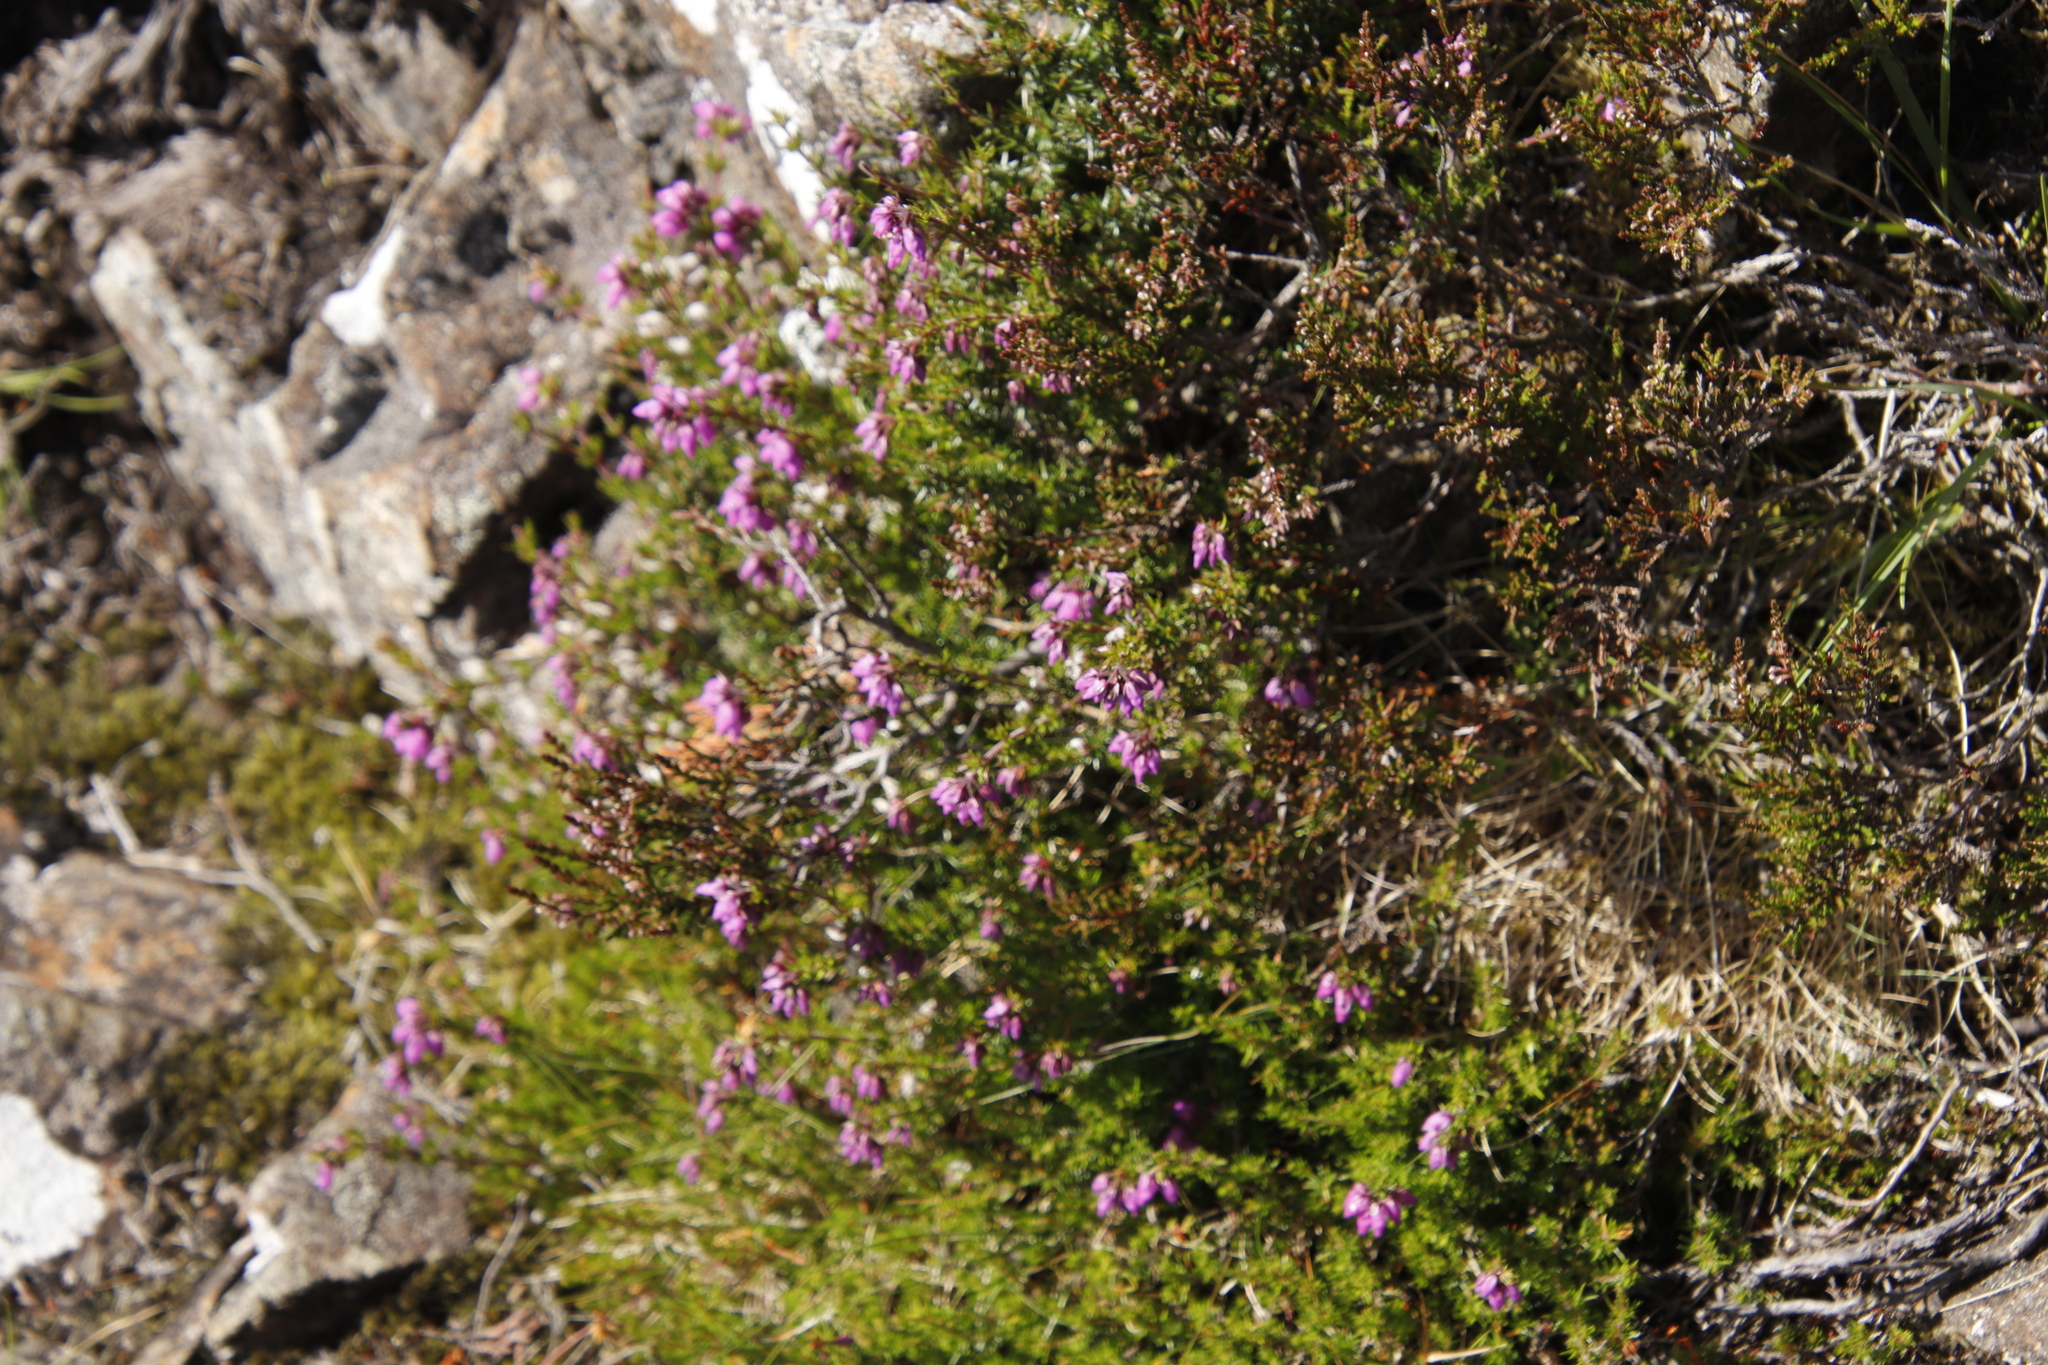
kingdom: Plantae
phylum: Tracheophyta
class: Magnoliopsida
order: Ericales
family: Ericaceae
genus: Erica
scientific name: Erica cinerea
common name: Bell heather
